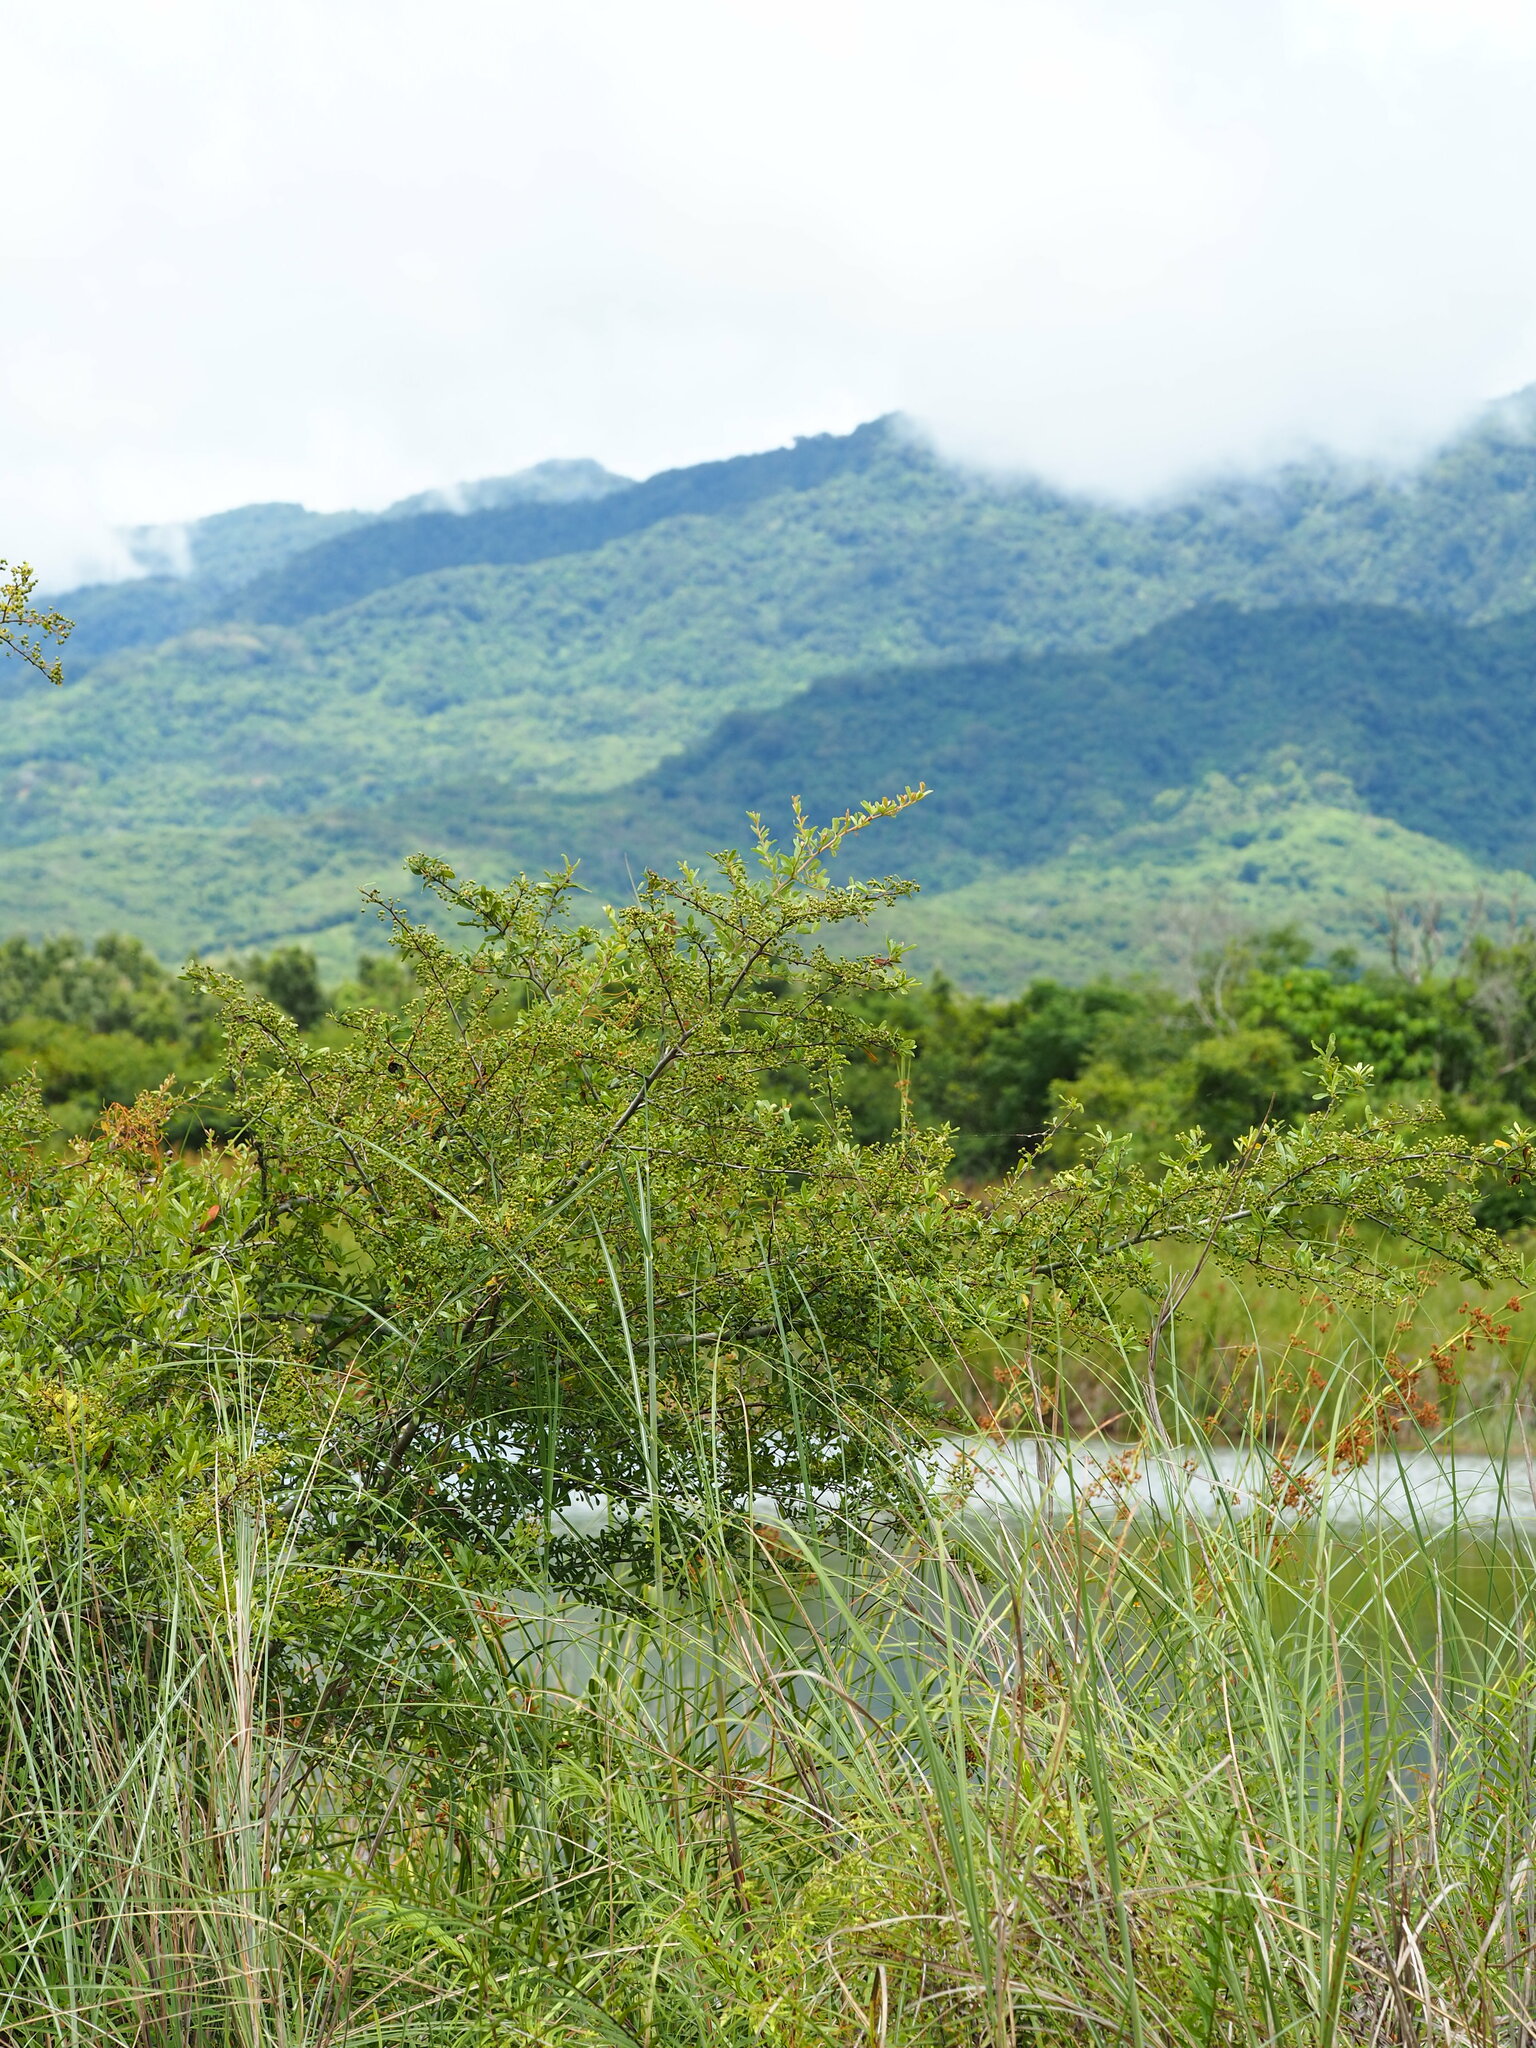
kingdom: Plantae
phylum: Tracheophyta
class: Magnoliopsida
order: Rosales
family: Rosaceae
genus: Pyracantha
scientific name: Pyracantha koidzumii
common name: Formosa firethorn
